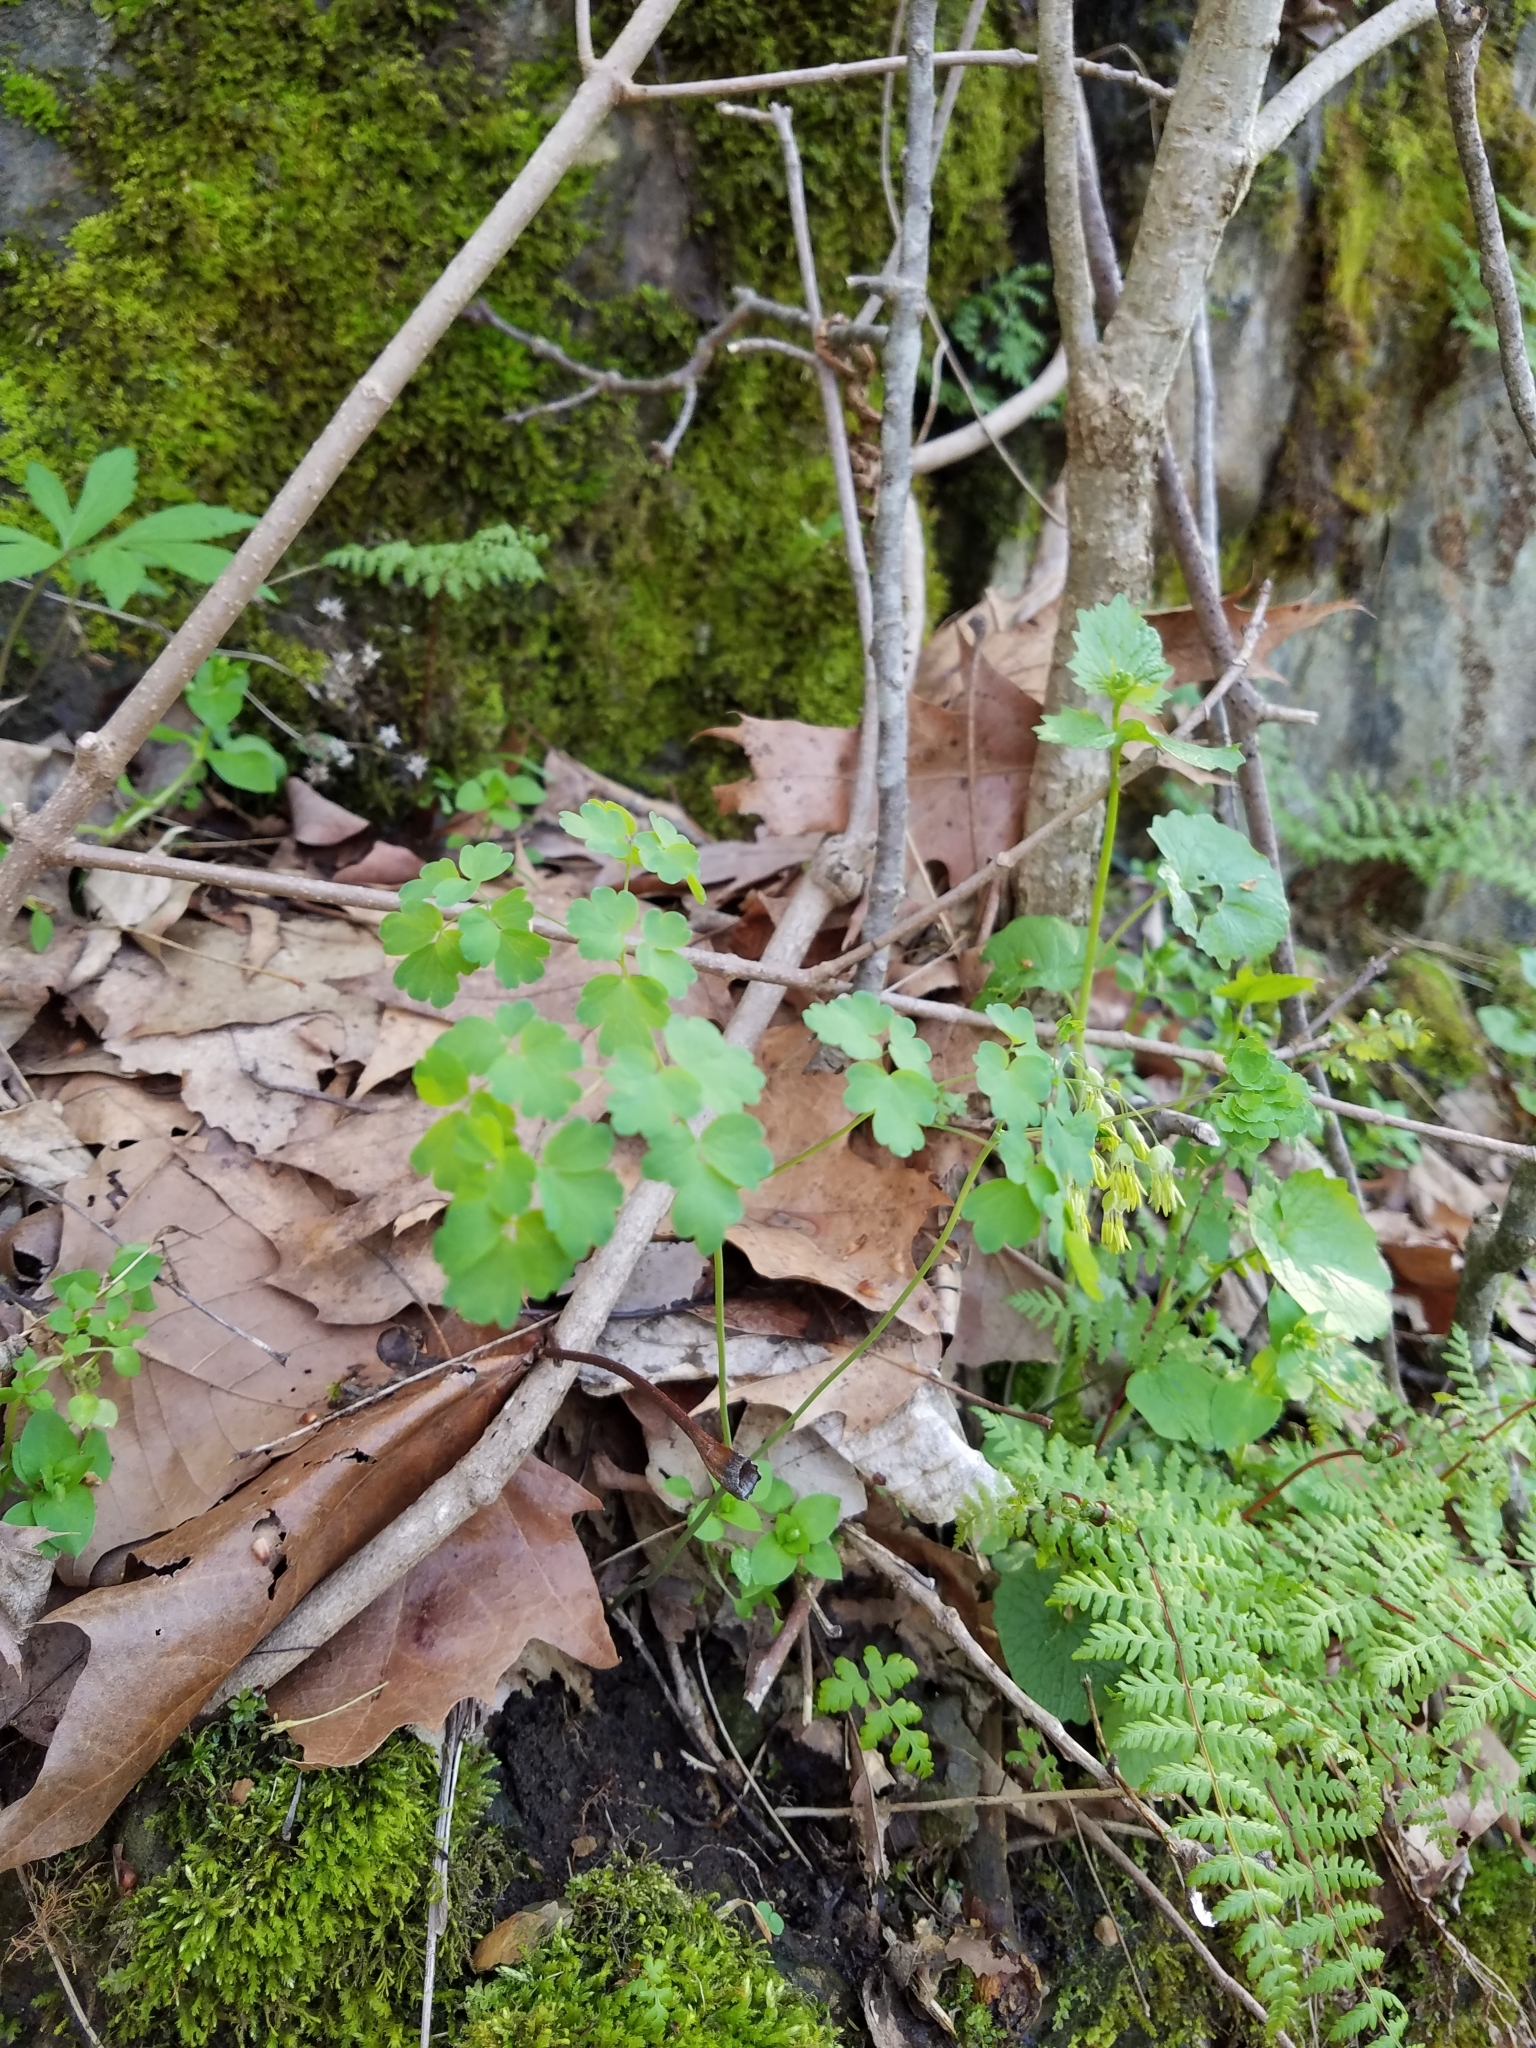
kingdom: Plantae
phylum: Tracheophyta
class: Magnoliopsida
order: Ranunculales
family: Ranunculaceae
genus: Thalictrum
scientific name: Thalictrum dioicum
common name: Early meadow-rue
